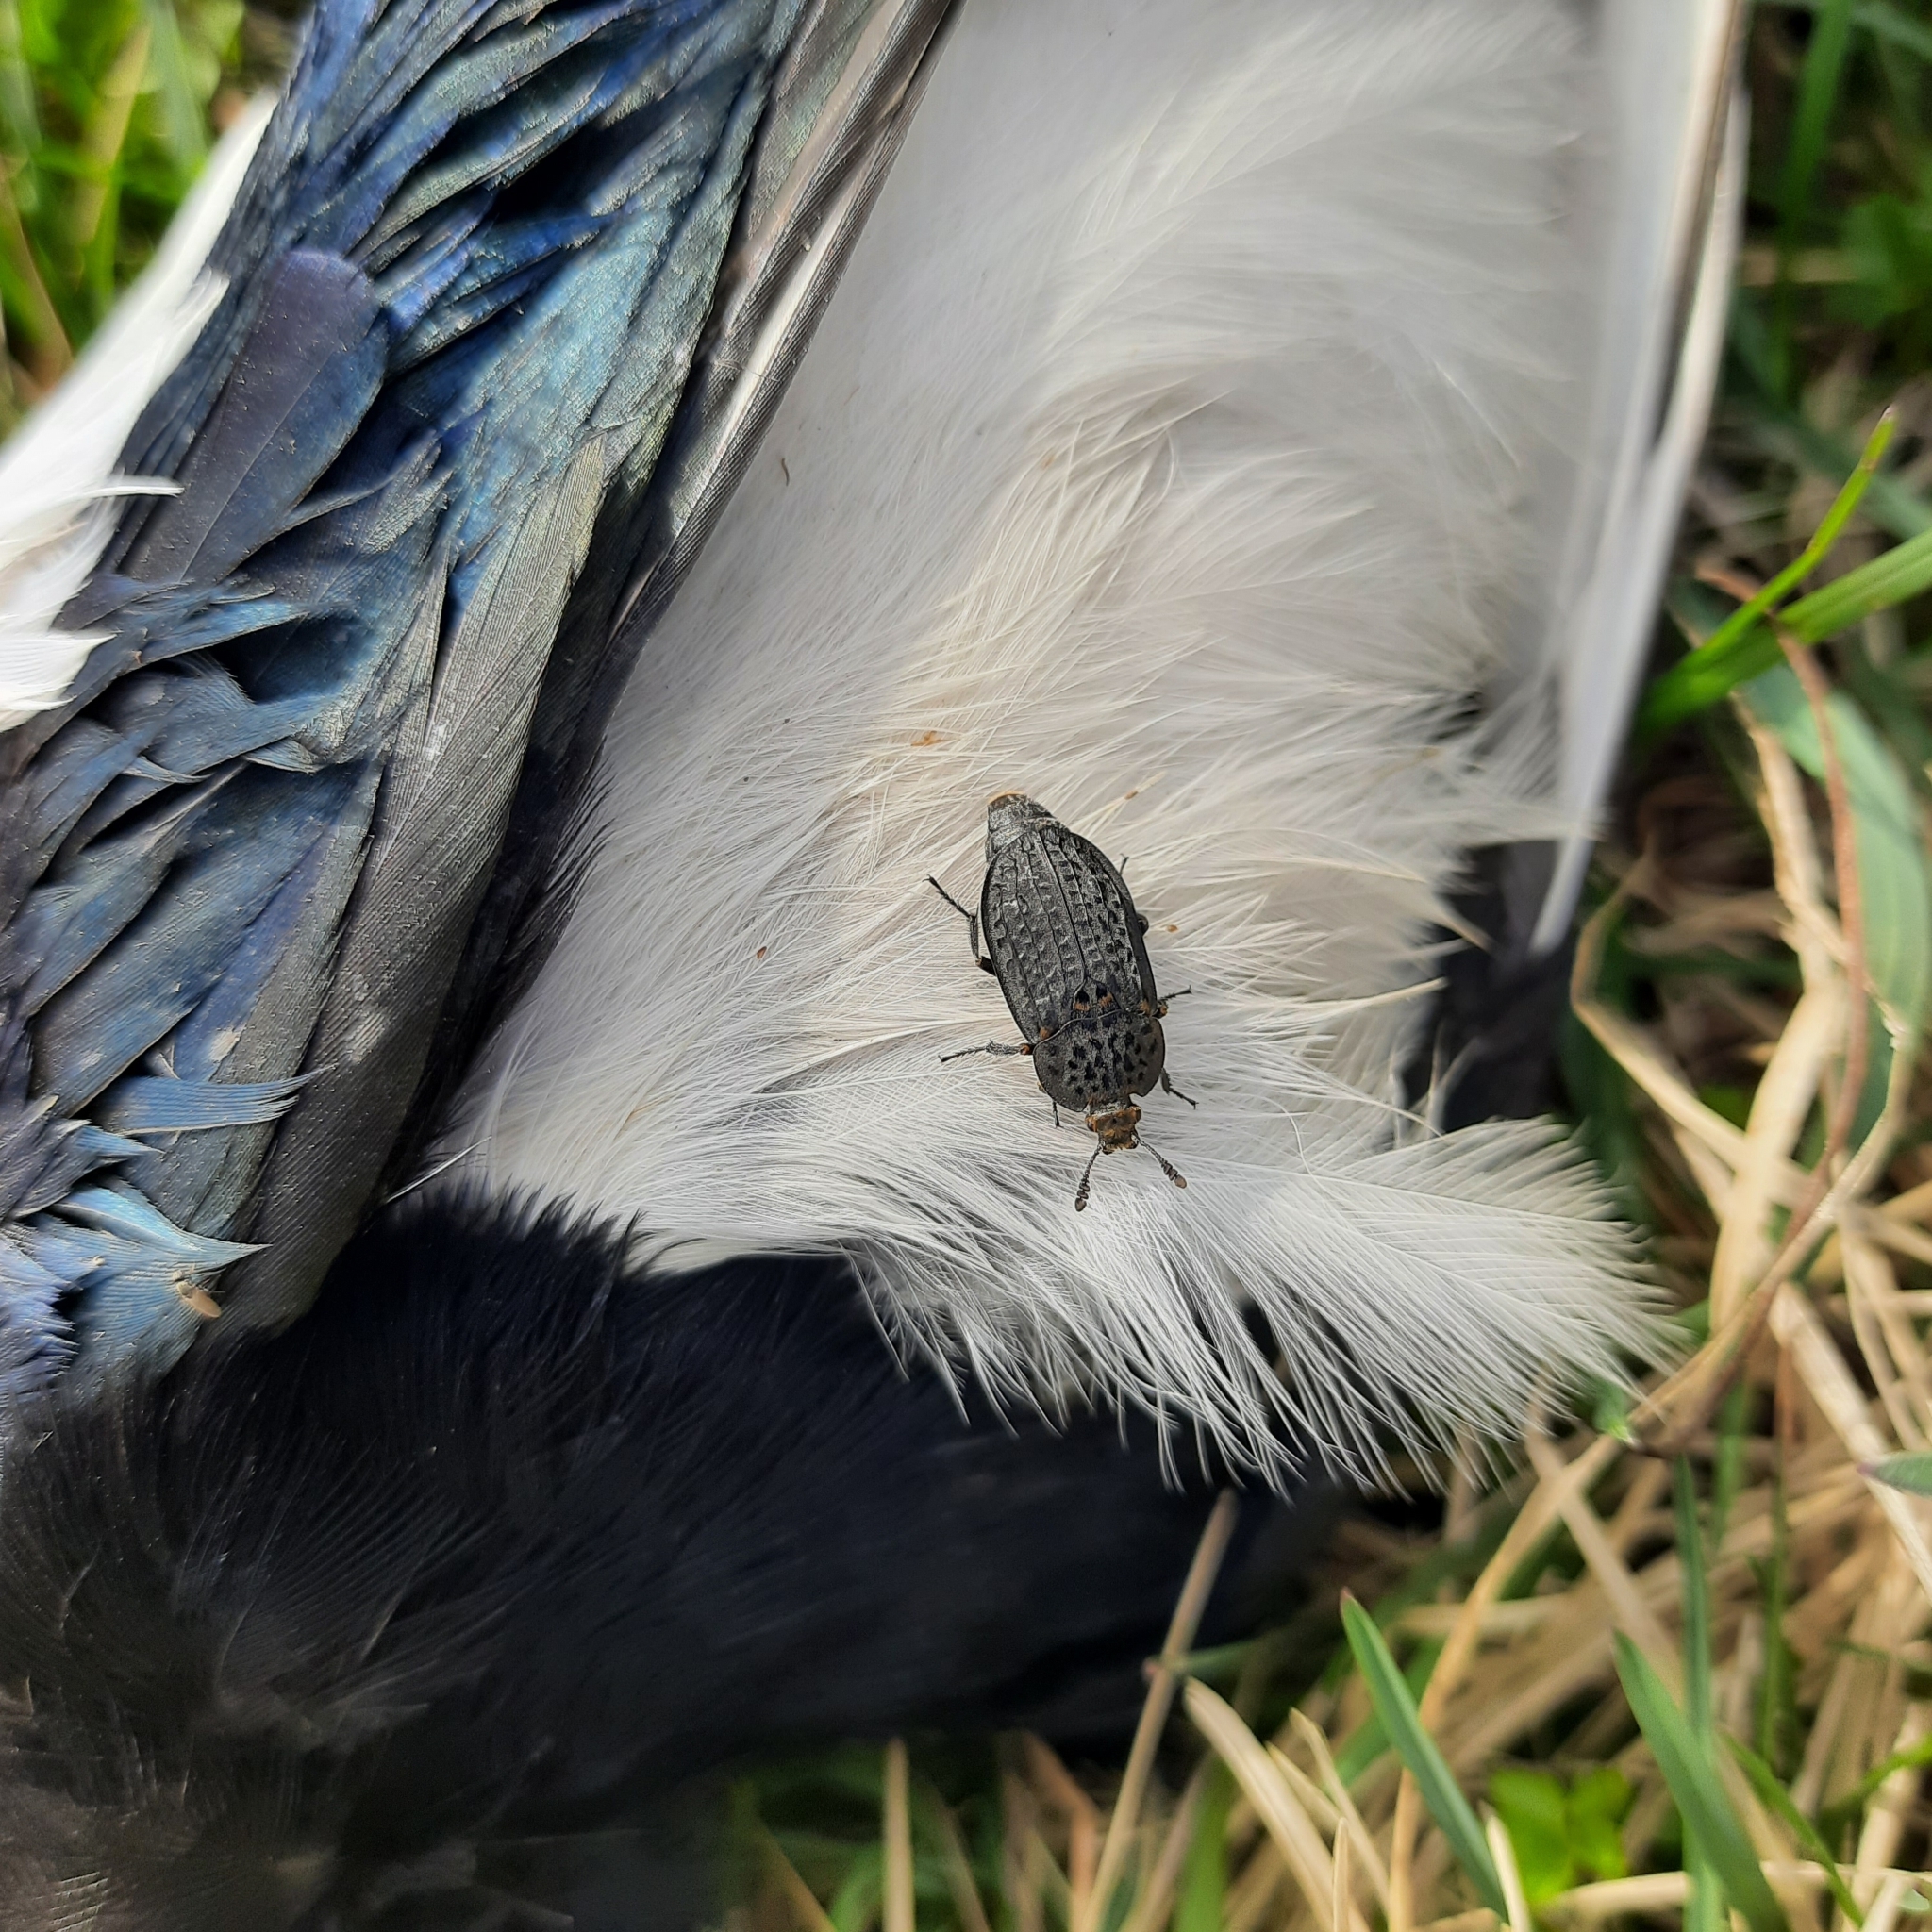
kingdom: Animalia
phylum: Arthropoda
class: Insecta
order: Coleoptera
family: Staphylinidae
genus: Thanatophilus
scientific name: Thanatophilus rugosus
